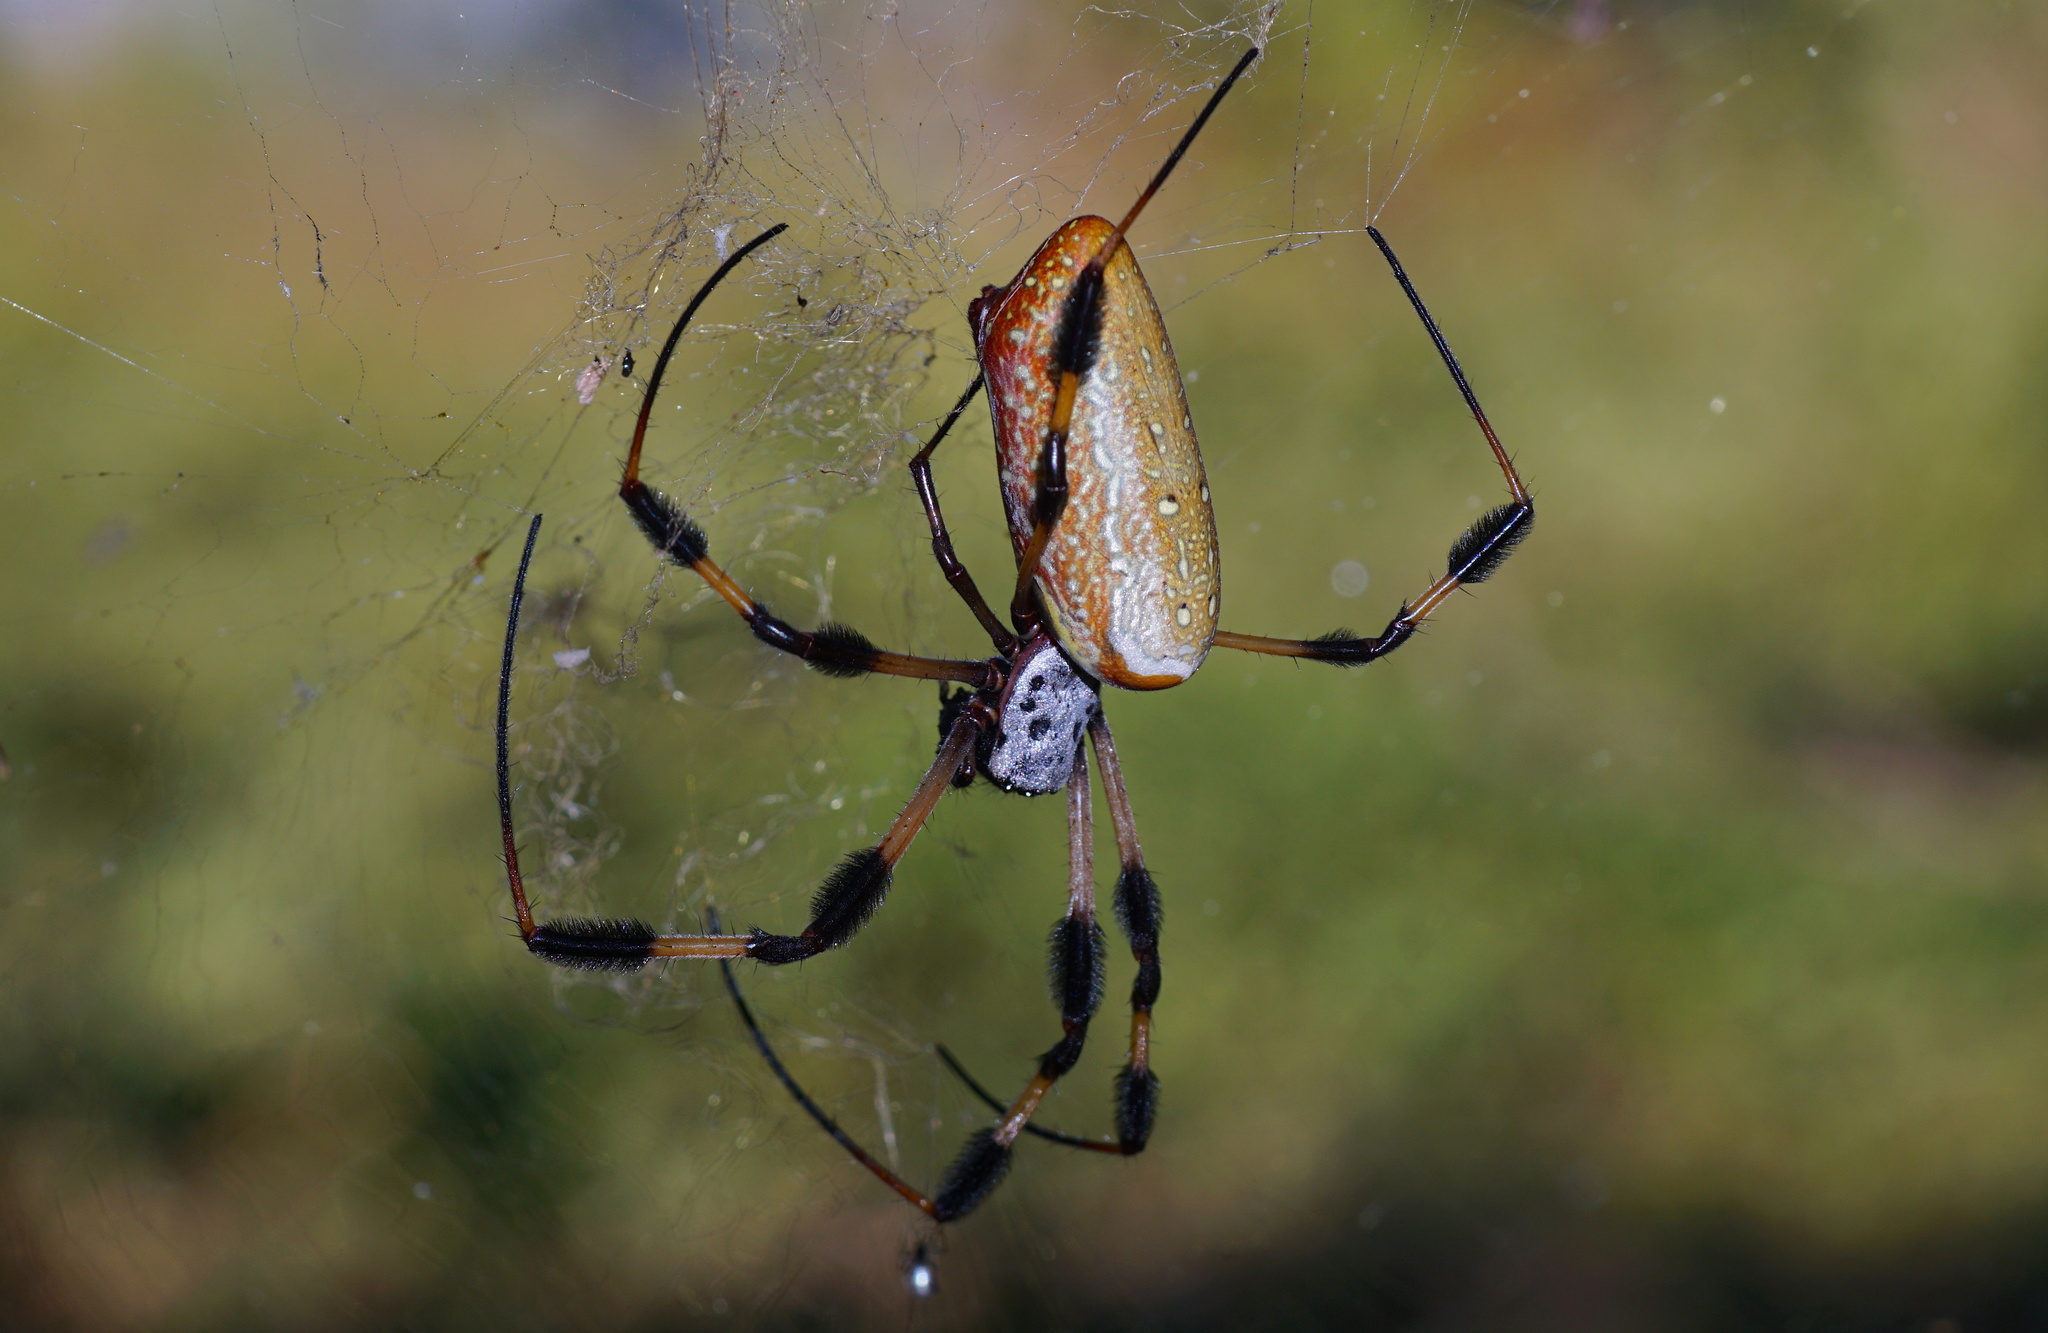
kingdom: Animalia
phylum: Arthropoda
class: Arachnida
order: Araneae
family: Araneidae
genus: Trichonephila
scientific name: Trichonephila clavipes
